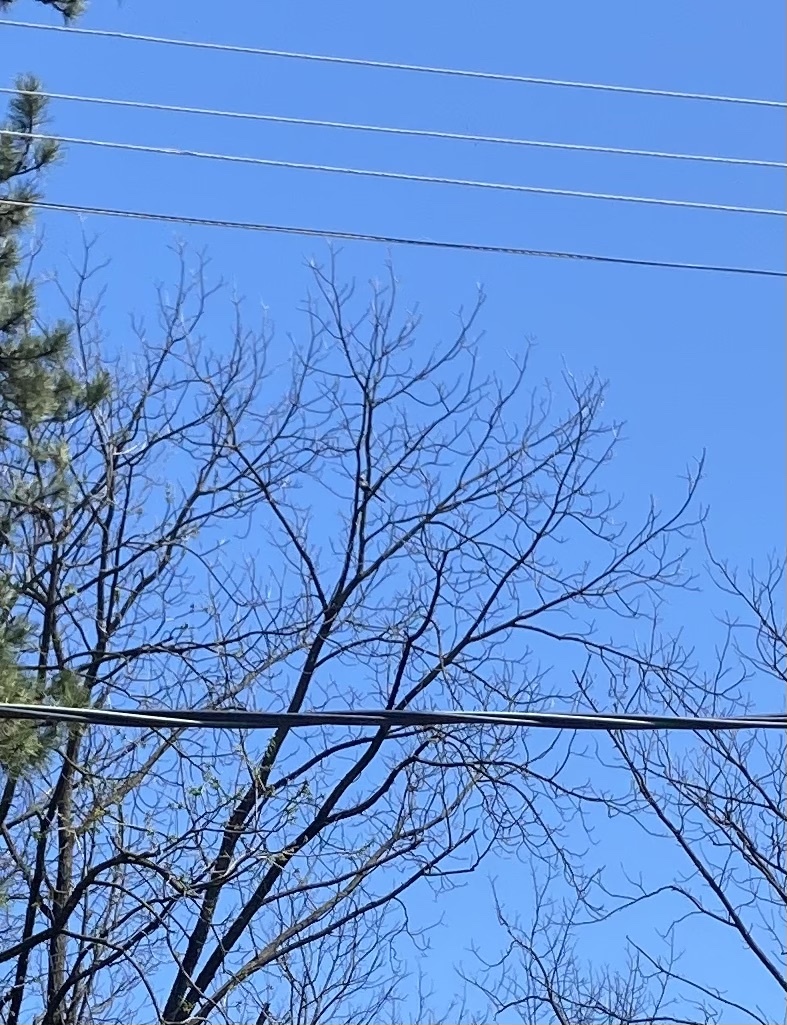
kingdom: Animalia
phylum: Chordata
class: Aves
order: Passeriformes
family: Corvidae
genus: Pica
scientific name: Pica pica
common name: Eurasian magpie
